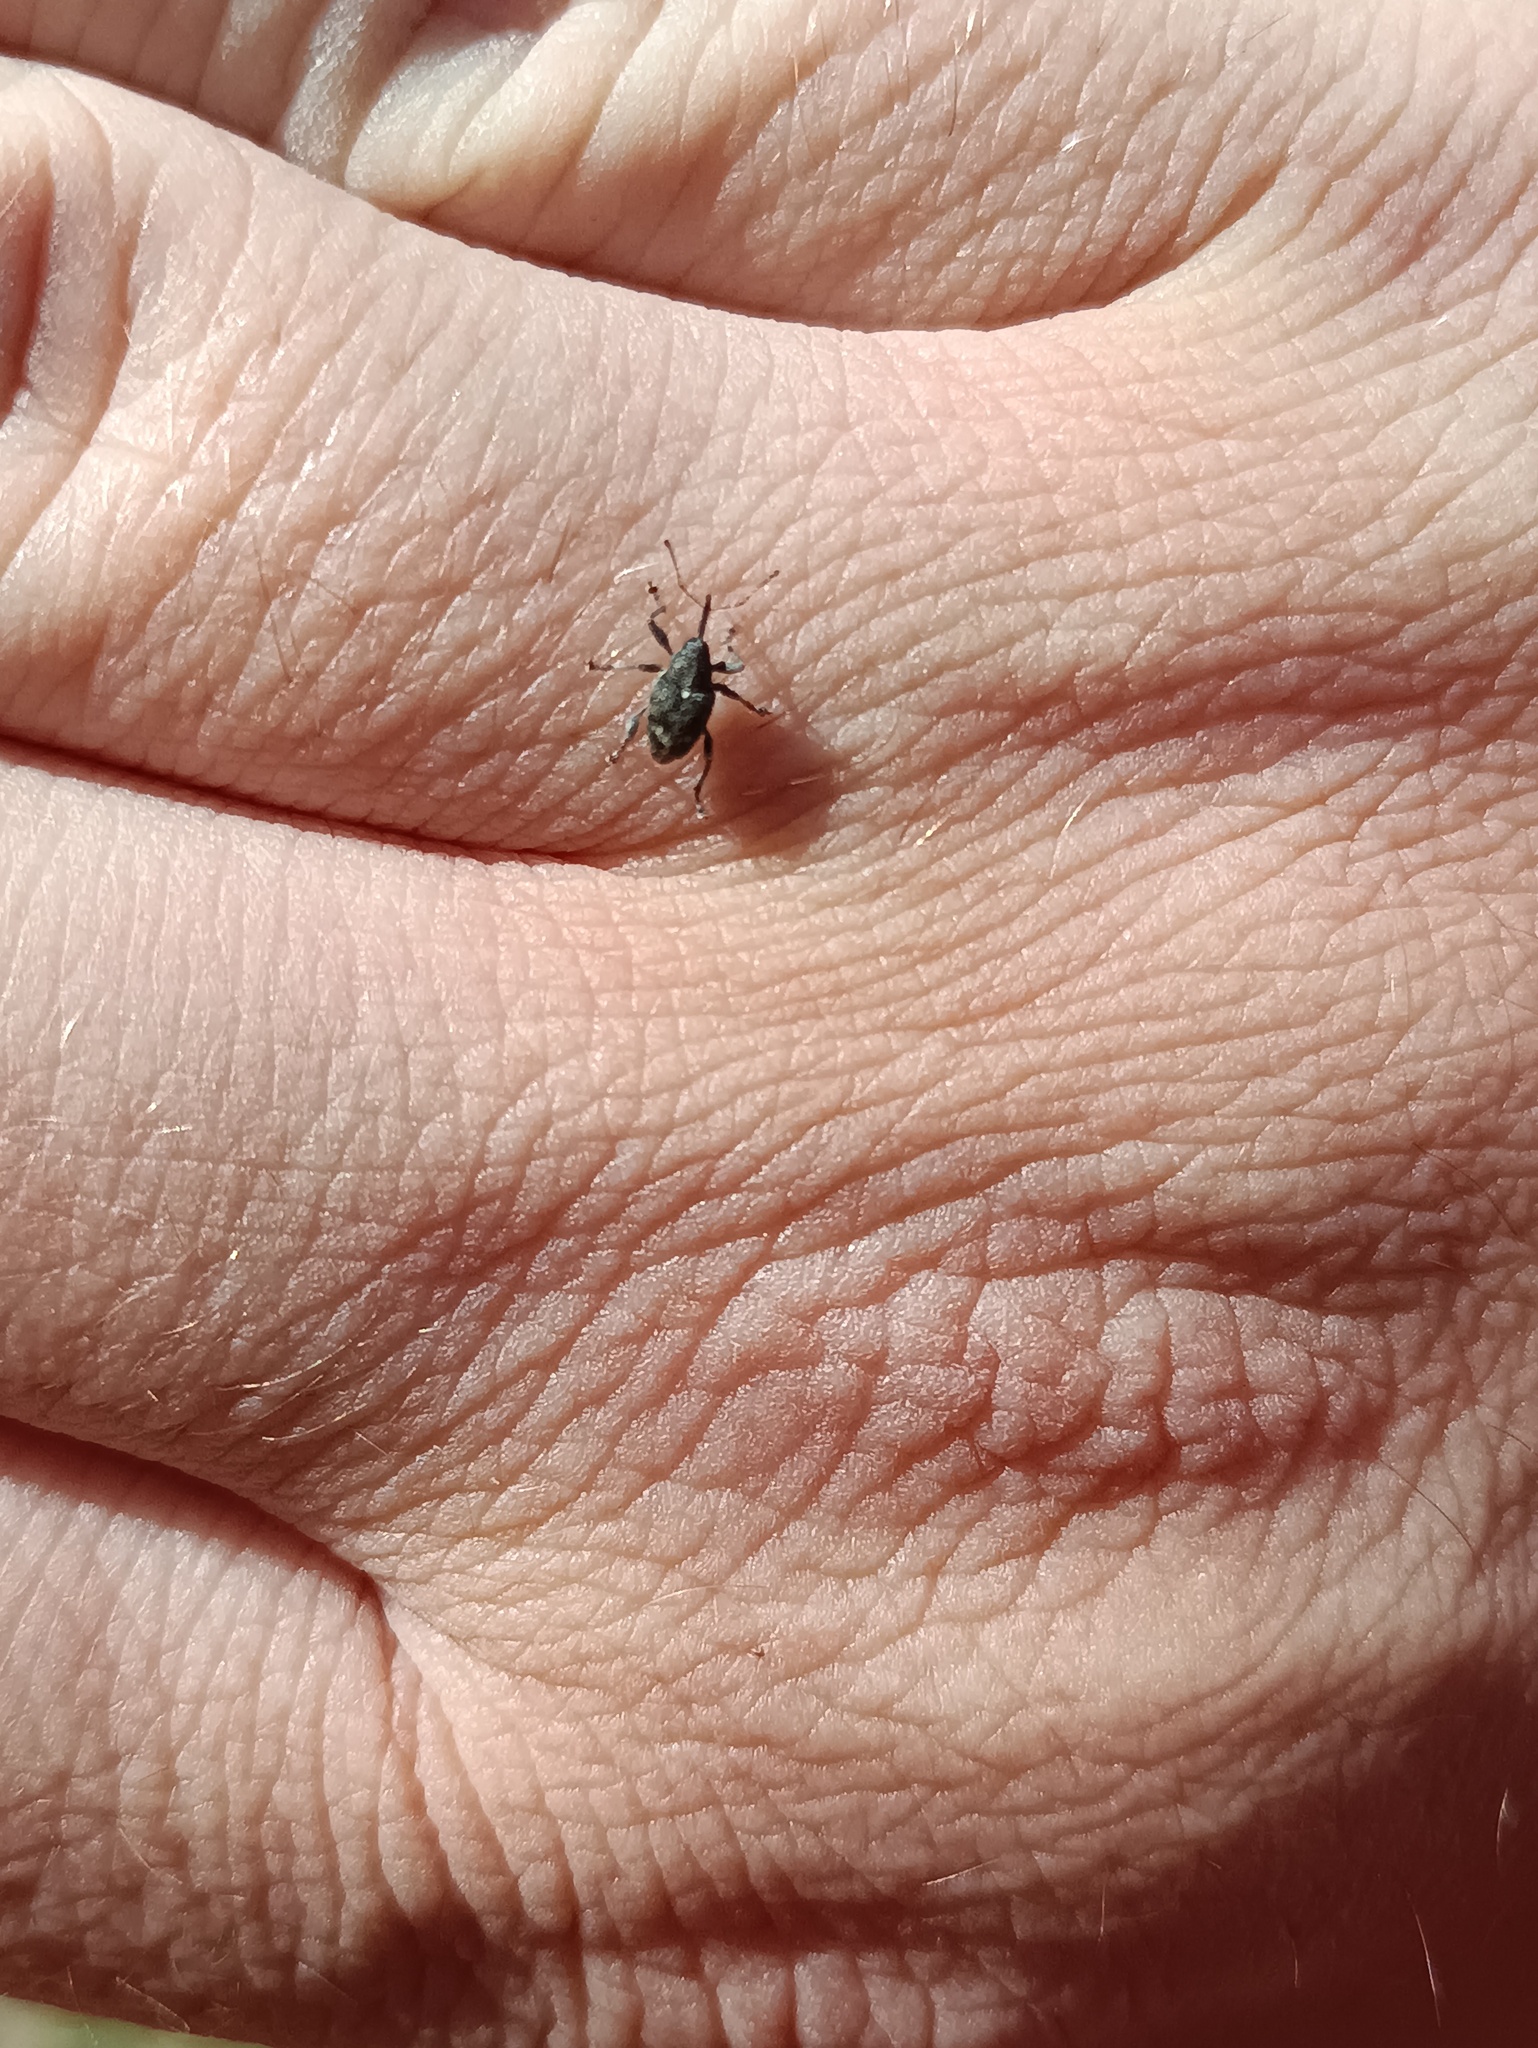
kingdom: Animalia
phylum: Arthropoda
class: Insecta
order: Coleoptera
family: Curculionidae
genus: Curculio
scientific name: Curculio villosus
